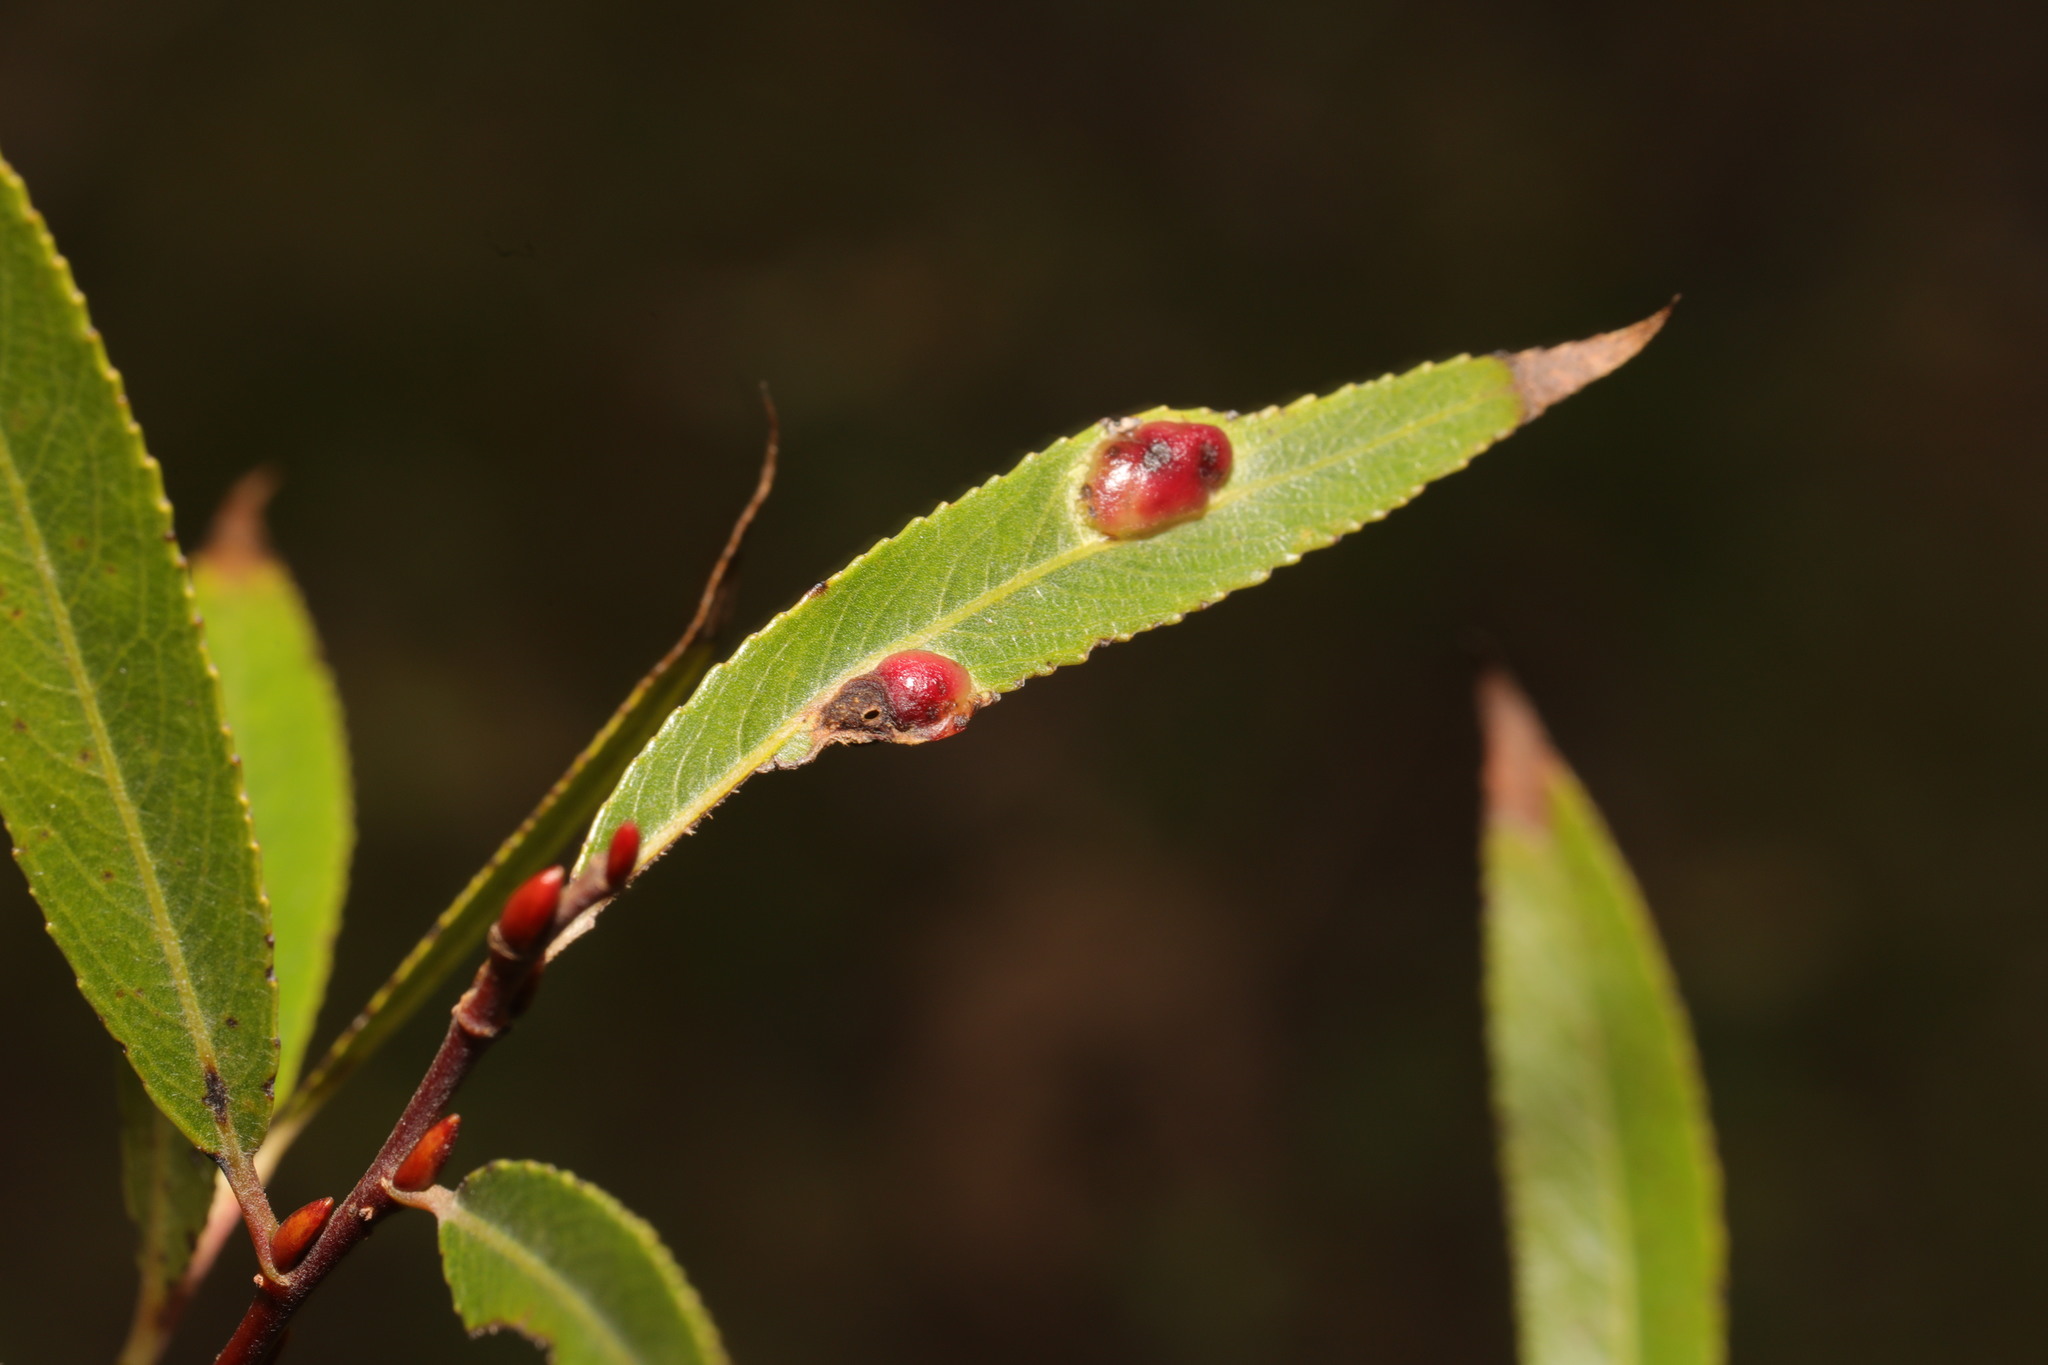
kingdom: Animalia
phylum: Arthropoda
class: Insecta
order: Hymenoptera
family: Tenthredinidae
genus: Pontania
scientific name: Pontania proxima
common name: Common sawfly
